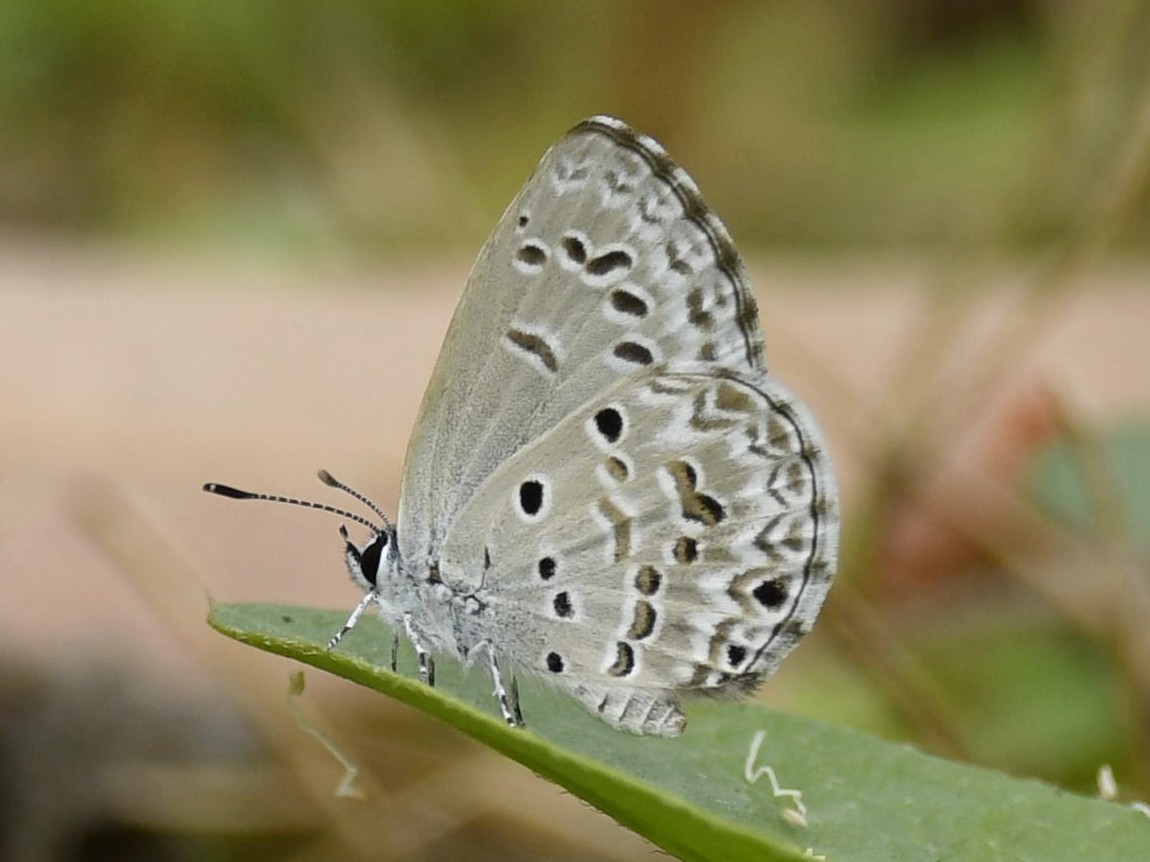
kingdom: Animalia
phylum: Arthropoda
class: Insecta
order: Lepidoptera
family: Lycaenidae
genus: Chilades
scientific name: Chilades laius
